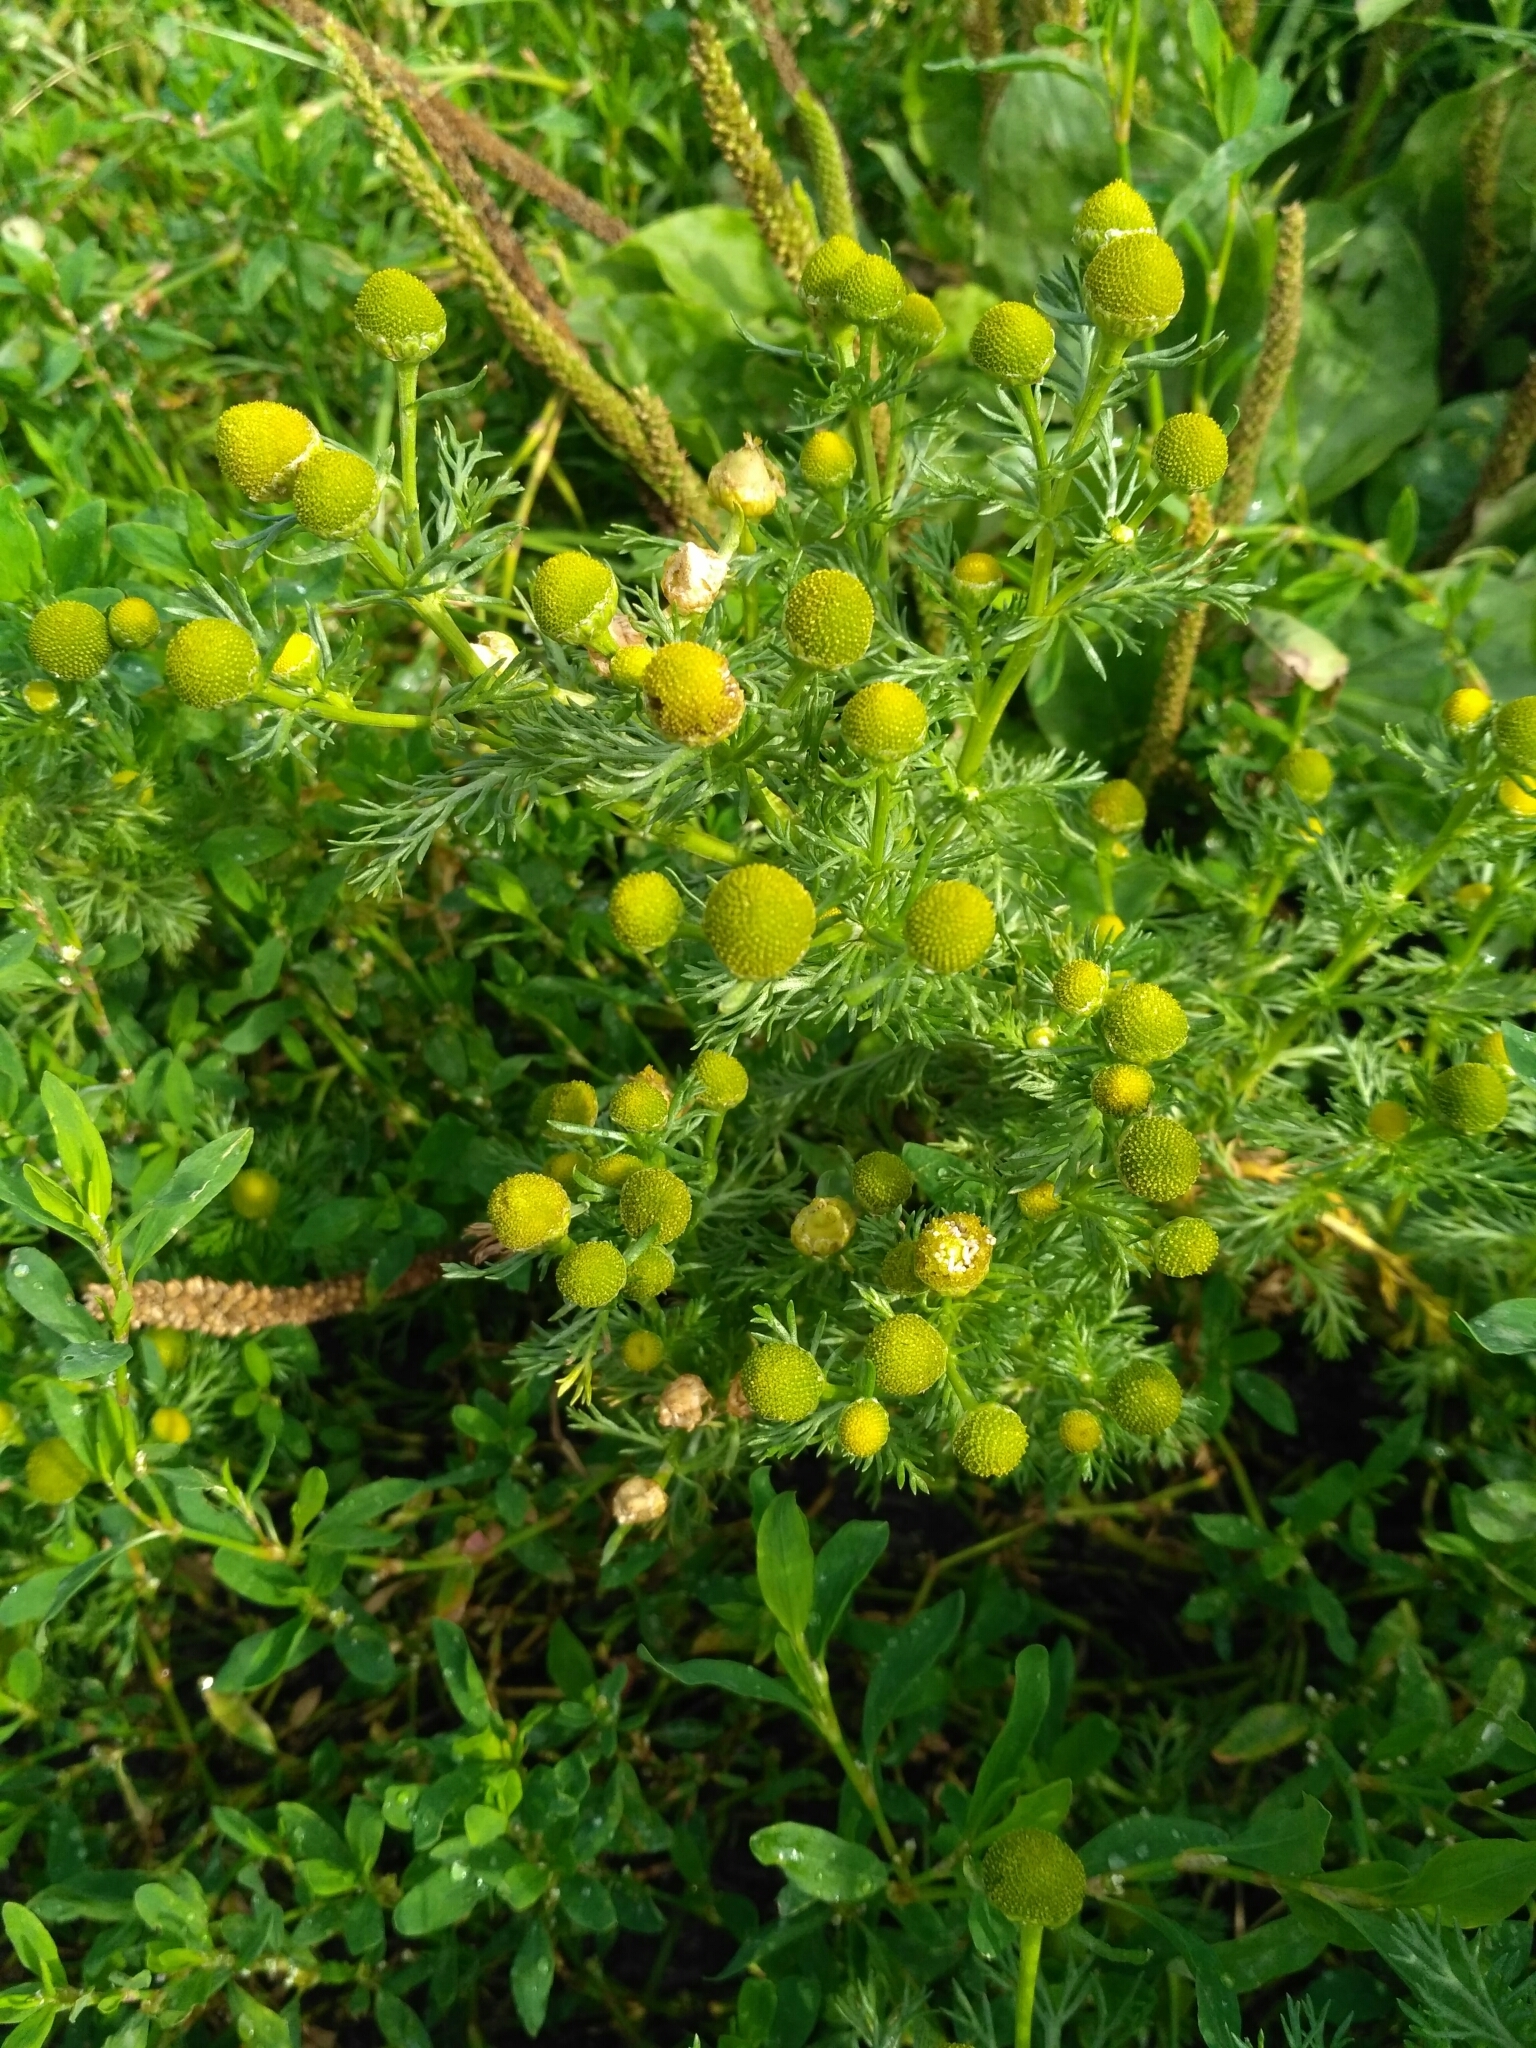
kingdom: Plantae
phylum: Tracheophyta
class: Magnoliopsida
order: Asterales
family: Asteraceae
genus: Matricaria
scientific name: Matricaria discoidea
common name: Disc mayweed
